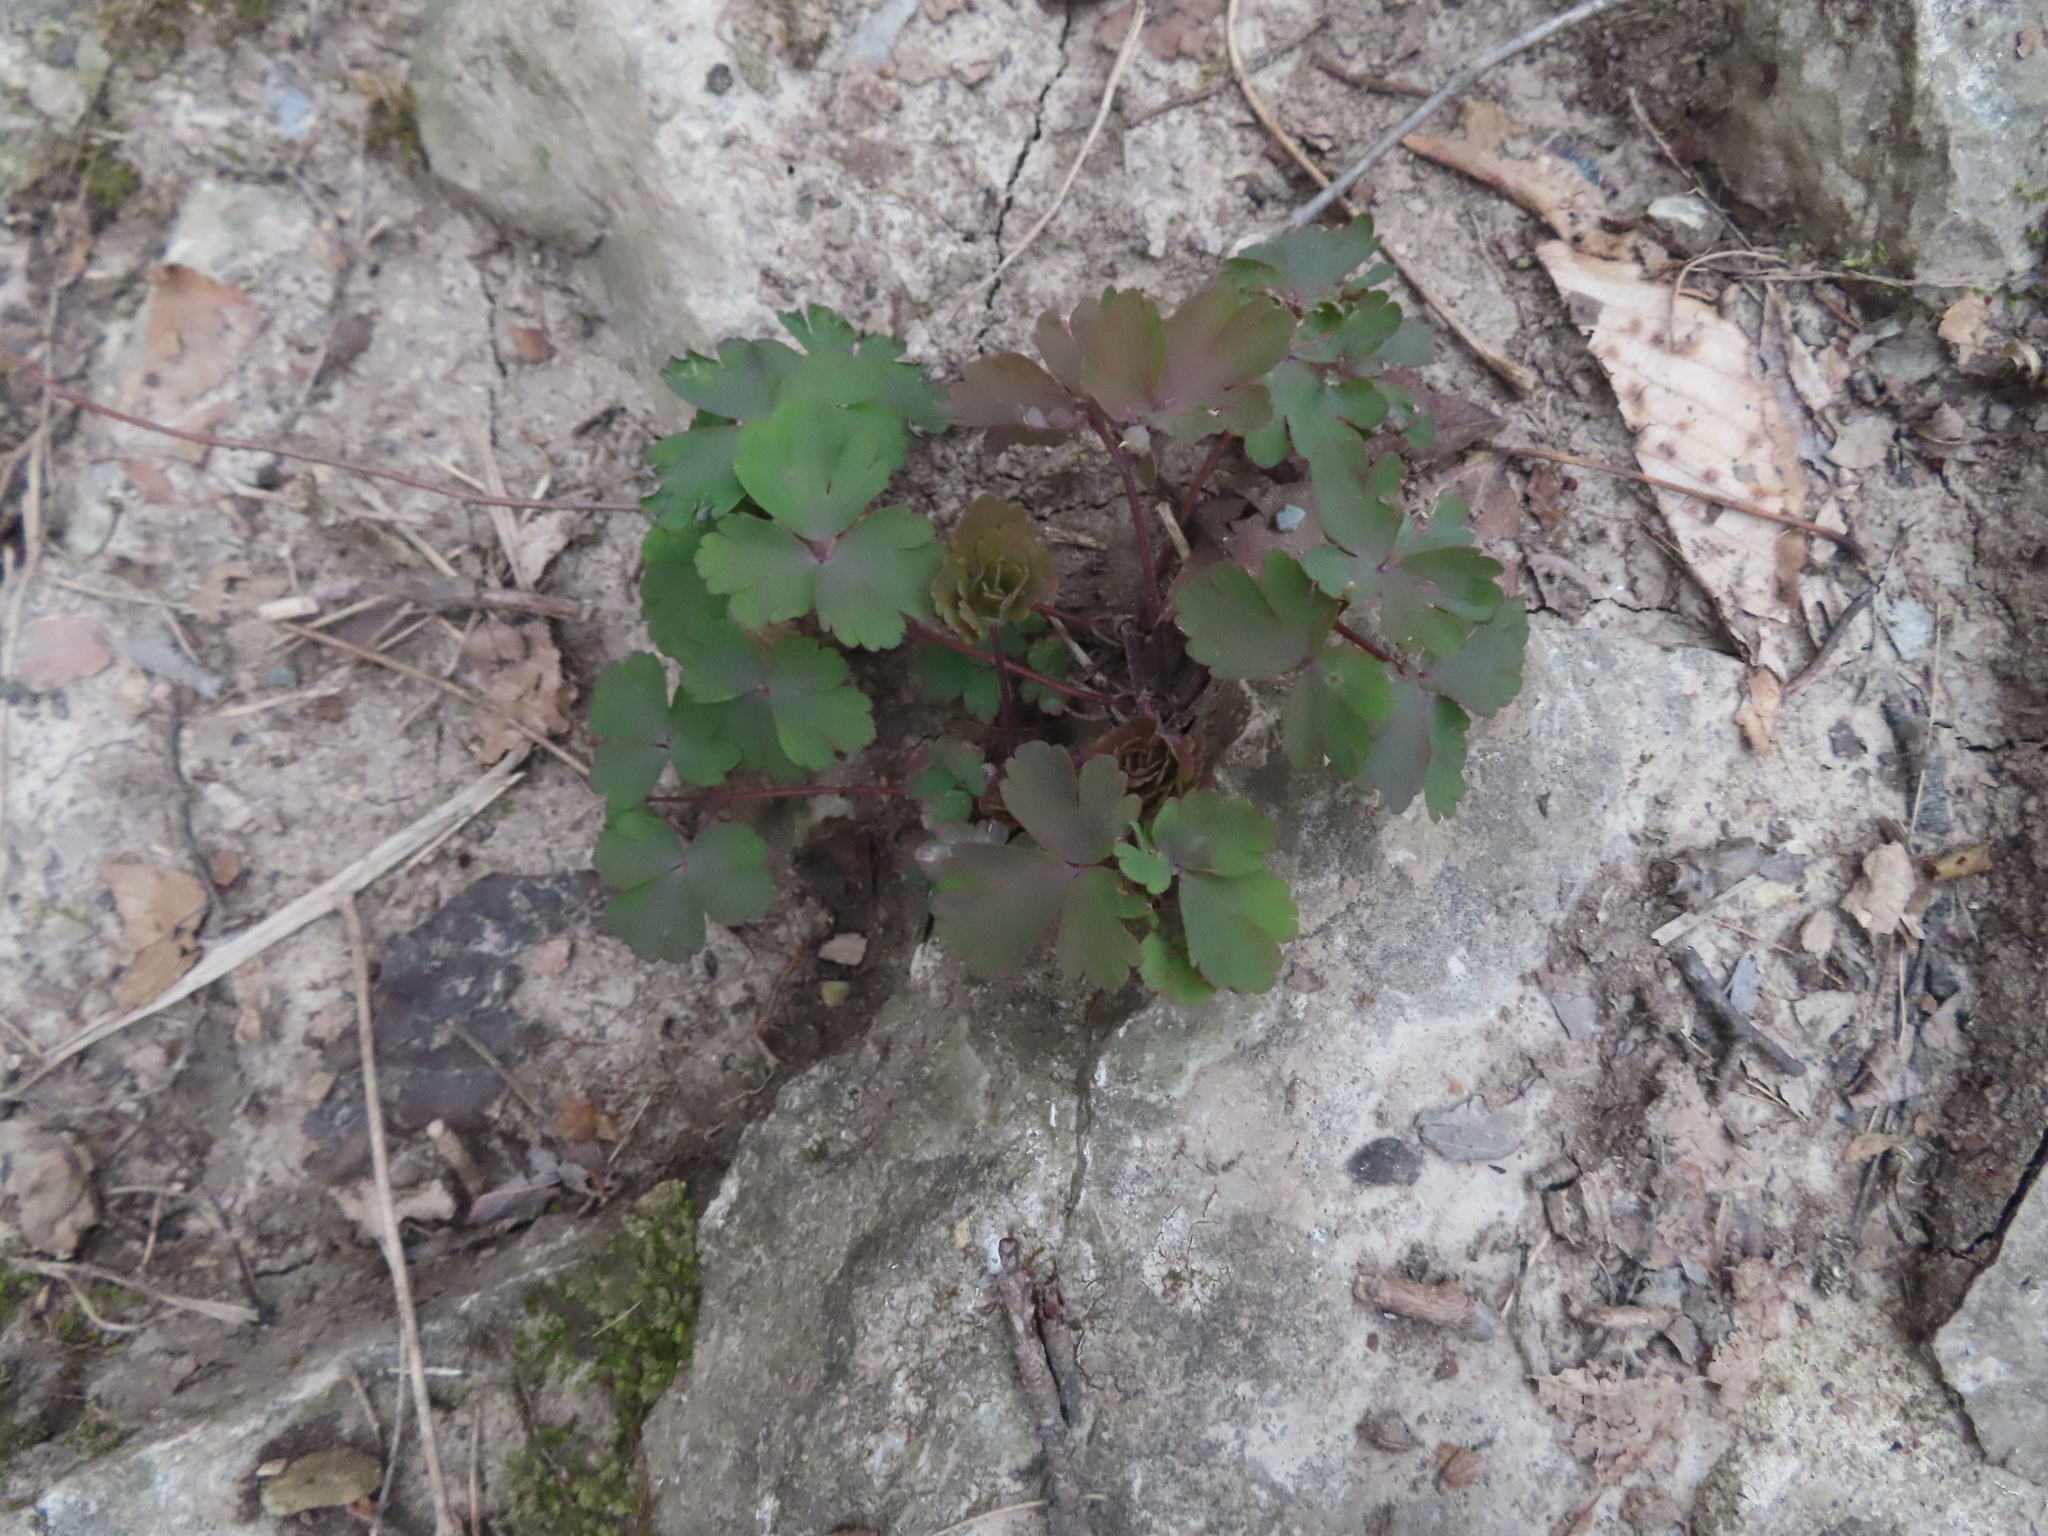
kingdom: Plantae
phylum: Tracheophyta
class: Magnoliopsida
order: Ranunculales
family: Ranunculaceae
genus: Aquilegia
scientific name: Aquilegia canadensis
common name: American columbine
